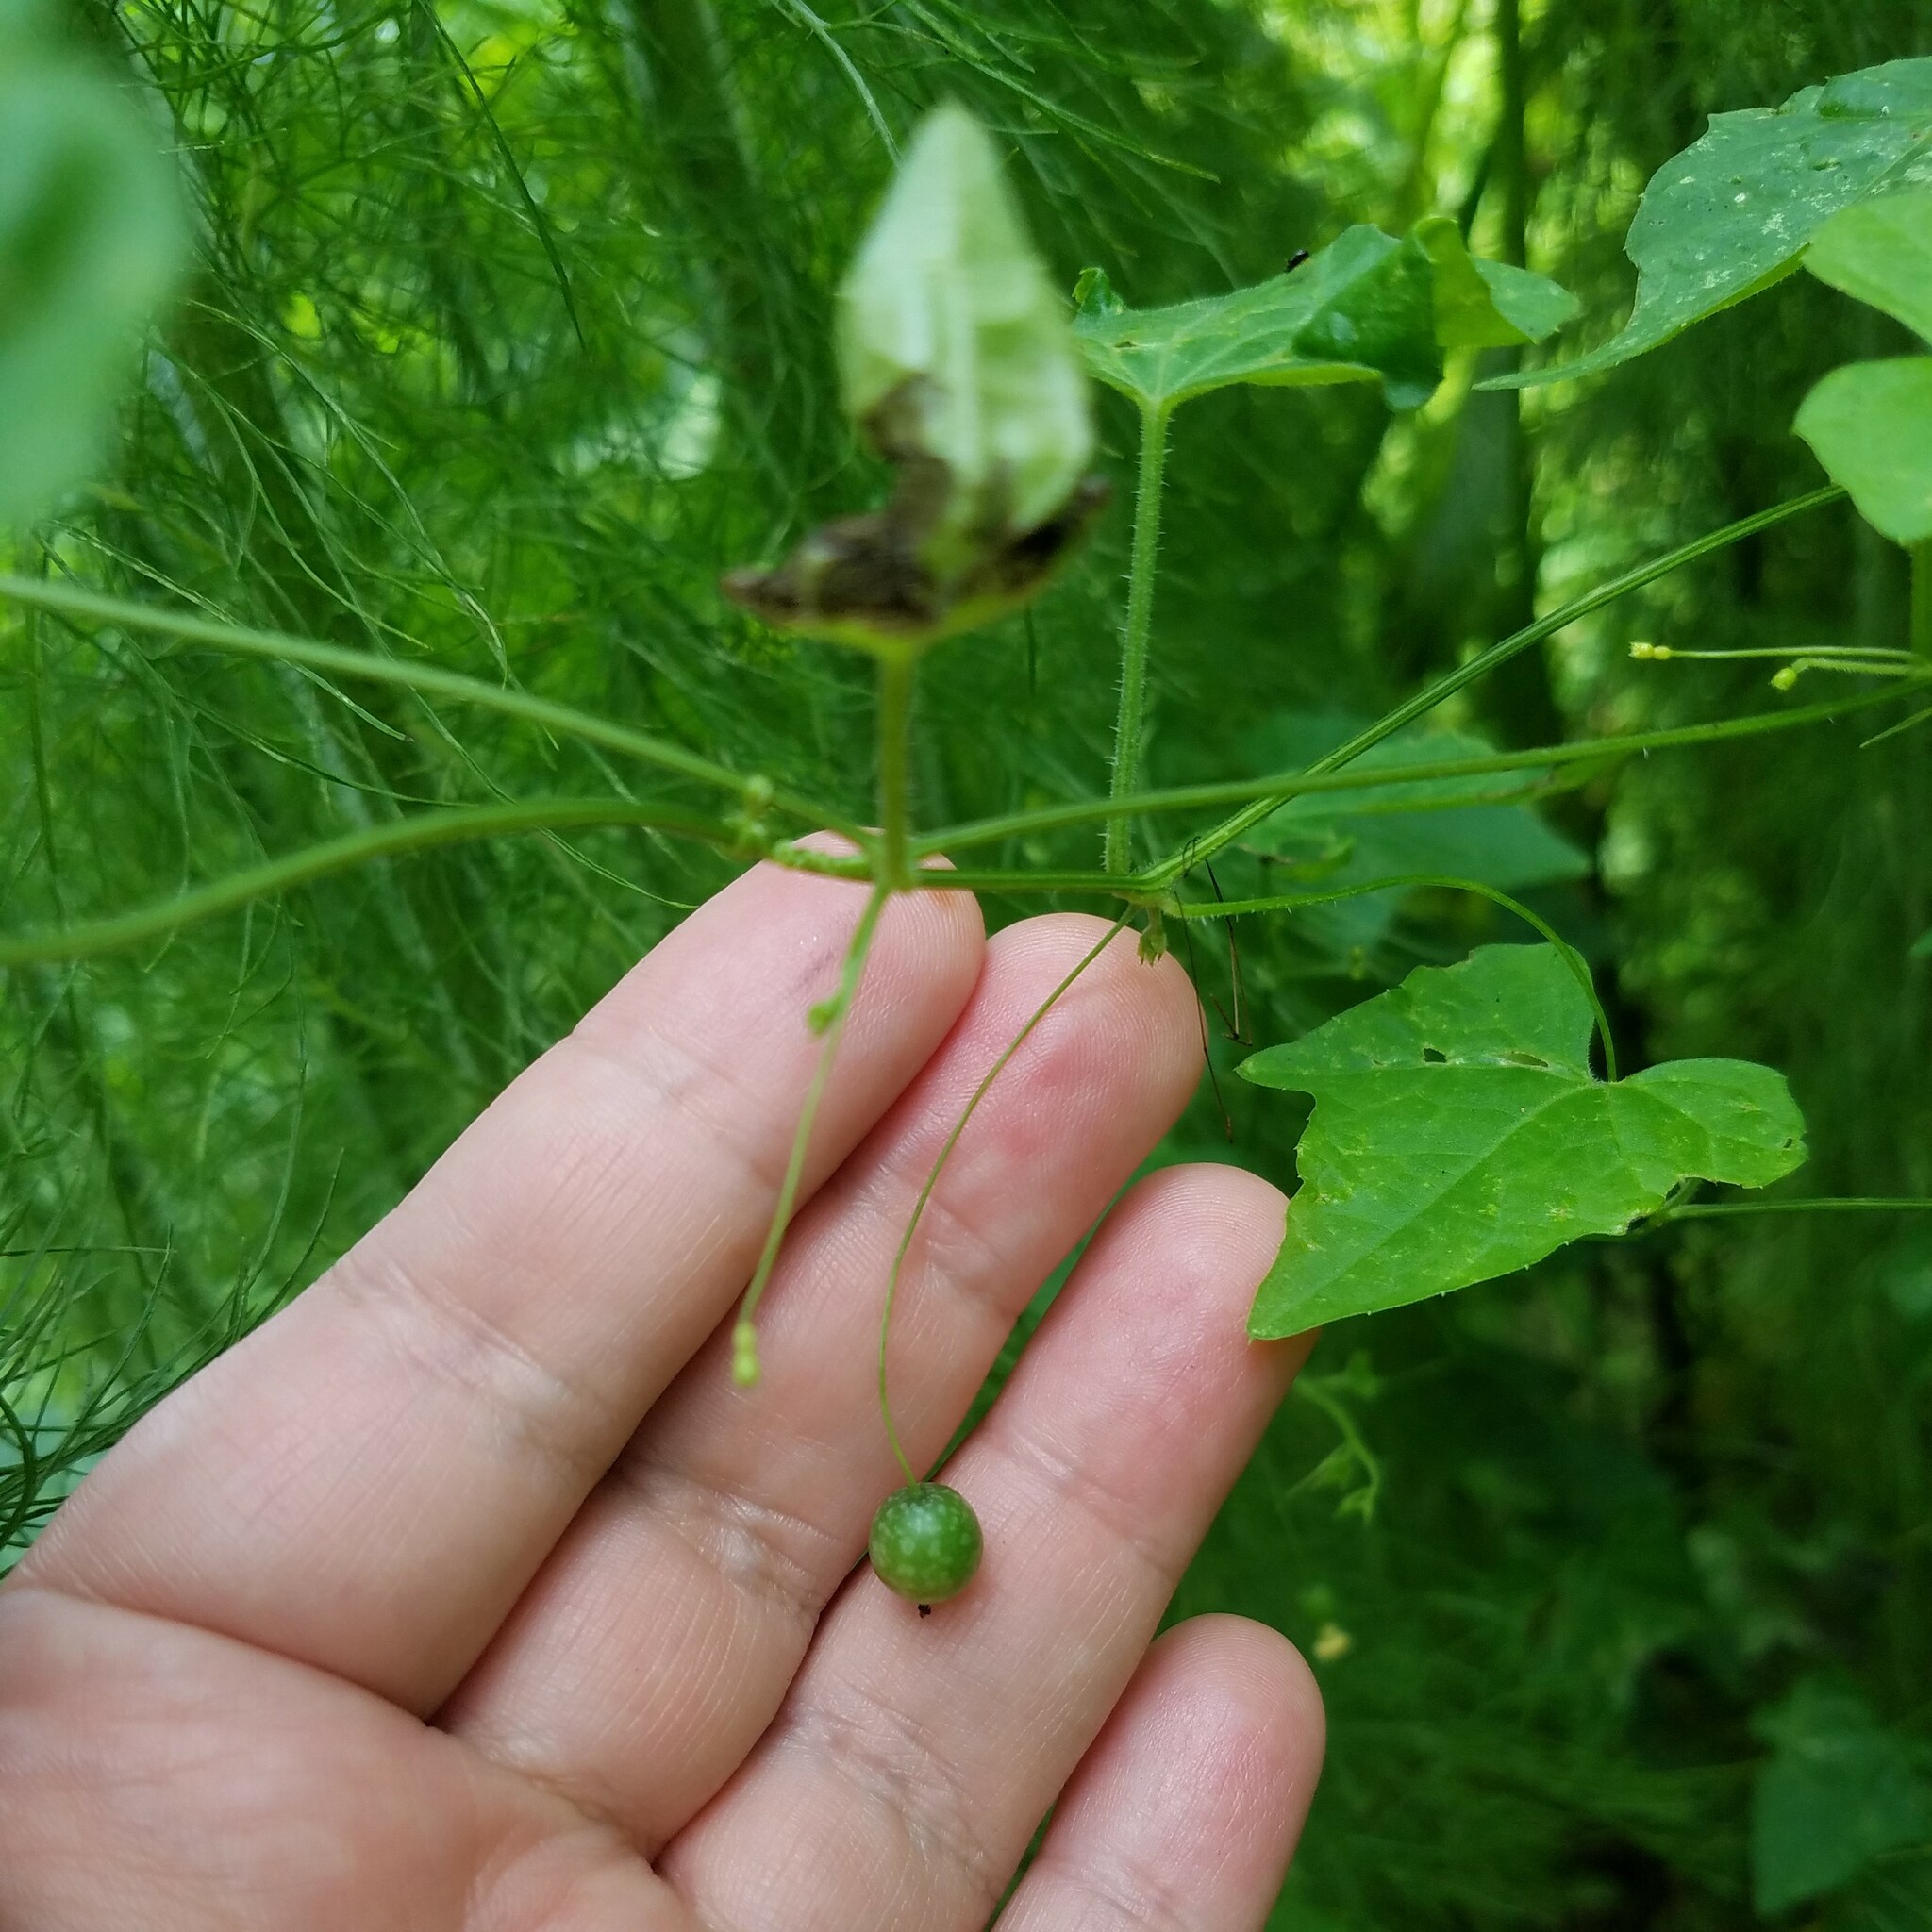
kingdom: Plantae
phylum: Tracheophyta
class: Magnoliopsida
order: Cucurbitales
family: Cucurbitaceae
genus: Melothria
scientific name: Melothria pendula
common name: Creeping-cucumber
